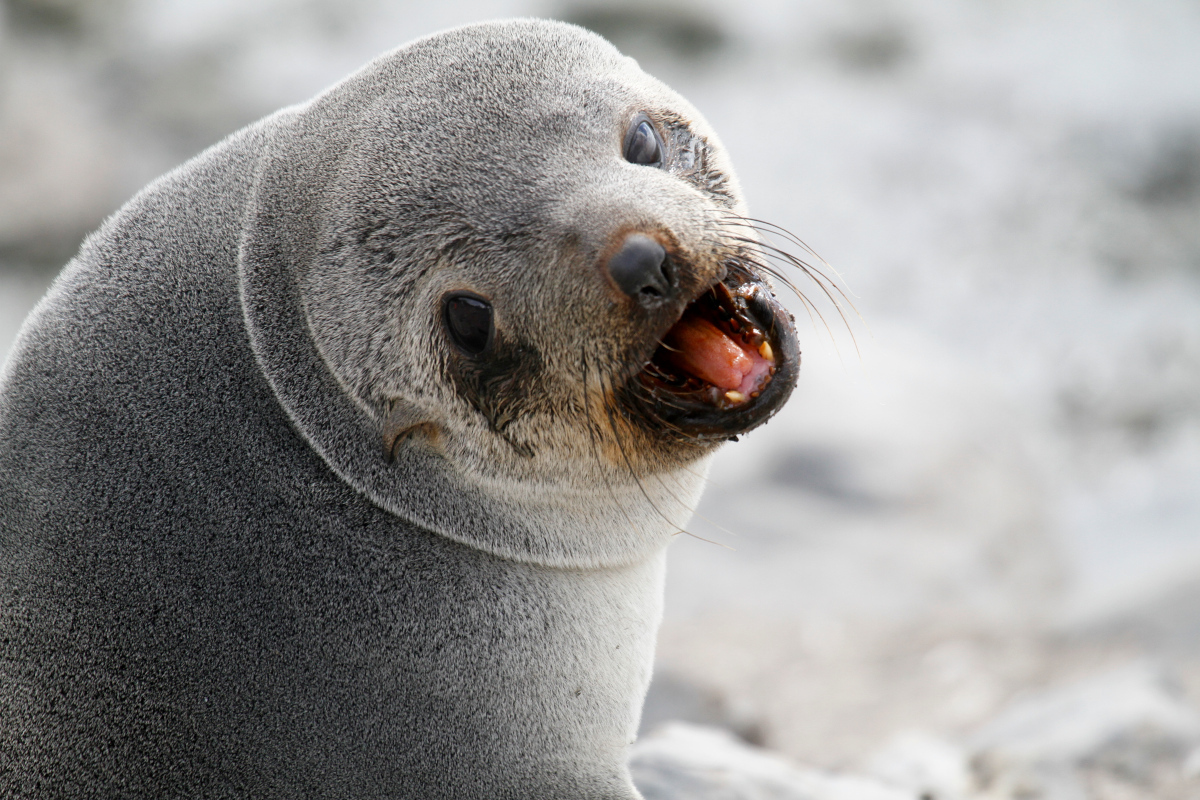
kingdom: Animalia
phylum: Chordata
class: Mammalia
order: Carnivora
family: Otariidae
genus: Arctocephalus
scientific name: Arctocephalus gazella
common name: Antarctic fur seal
